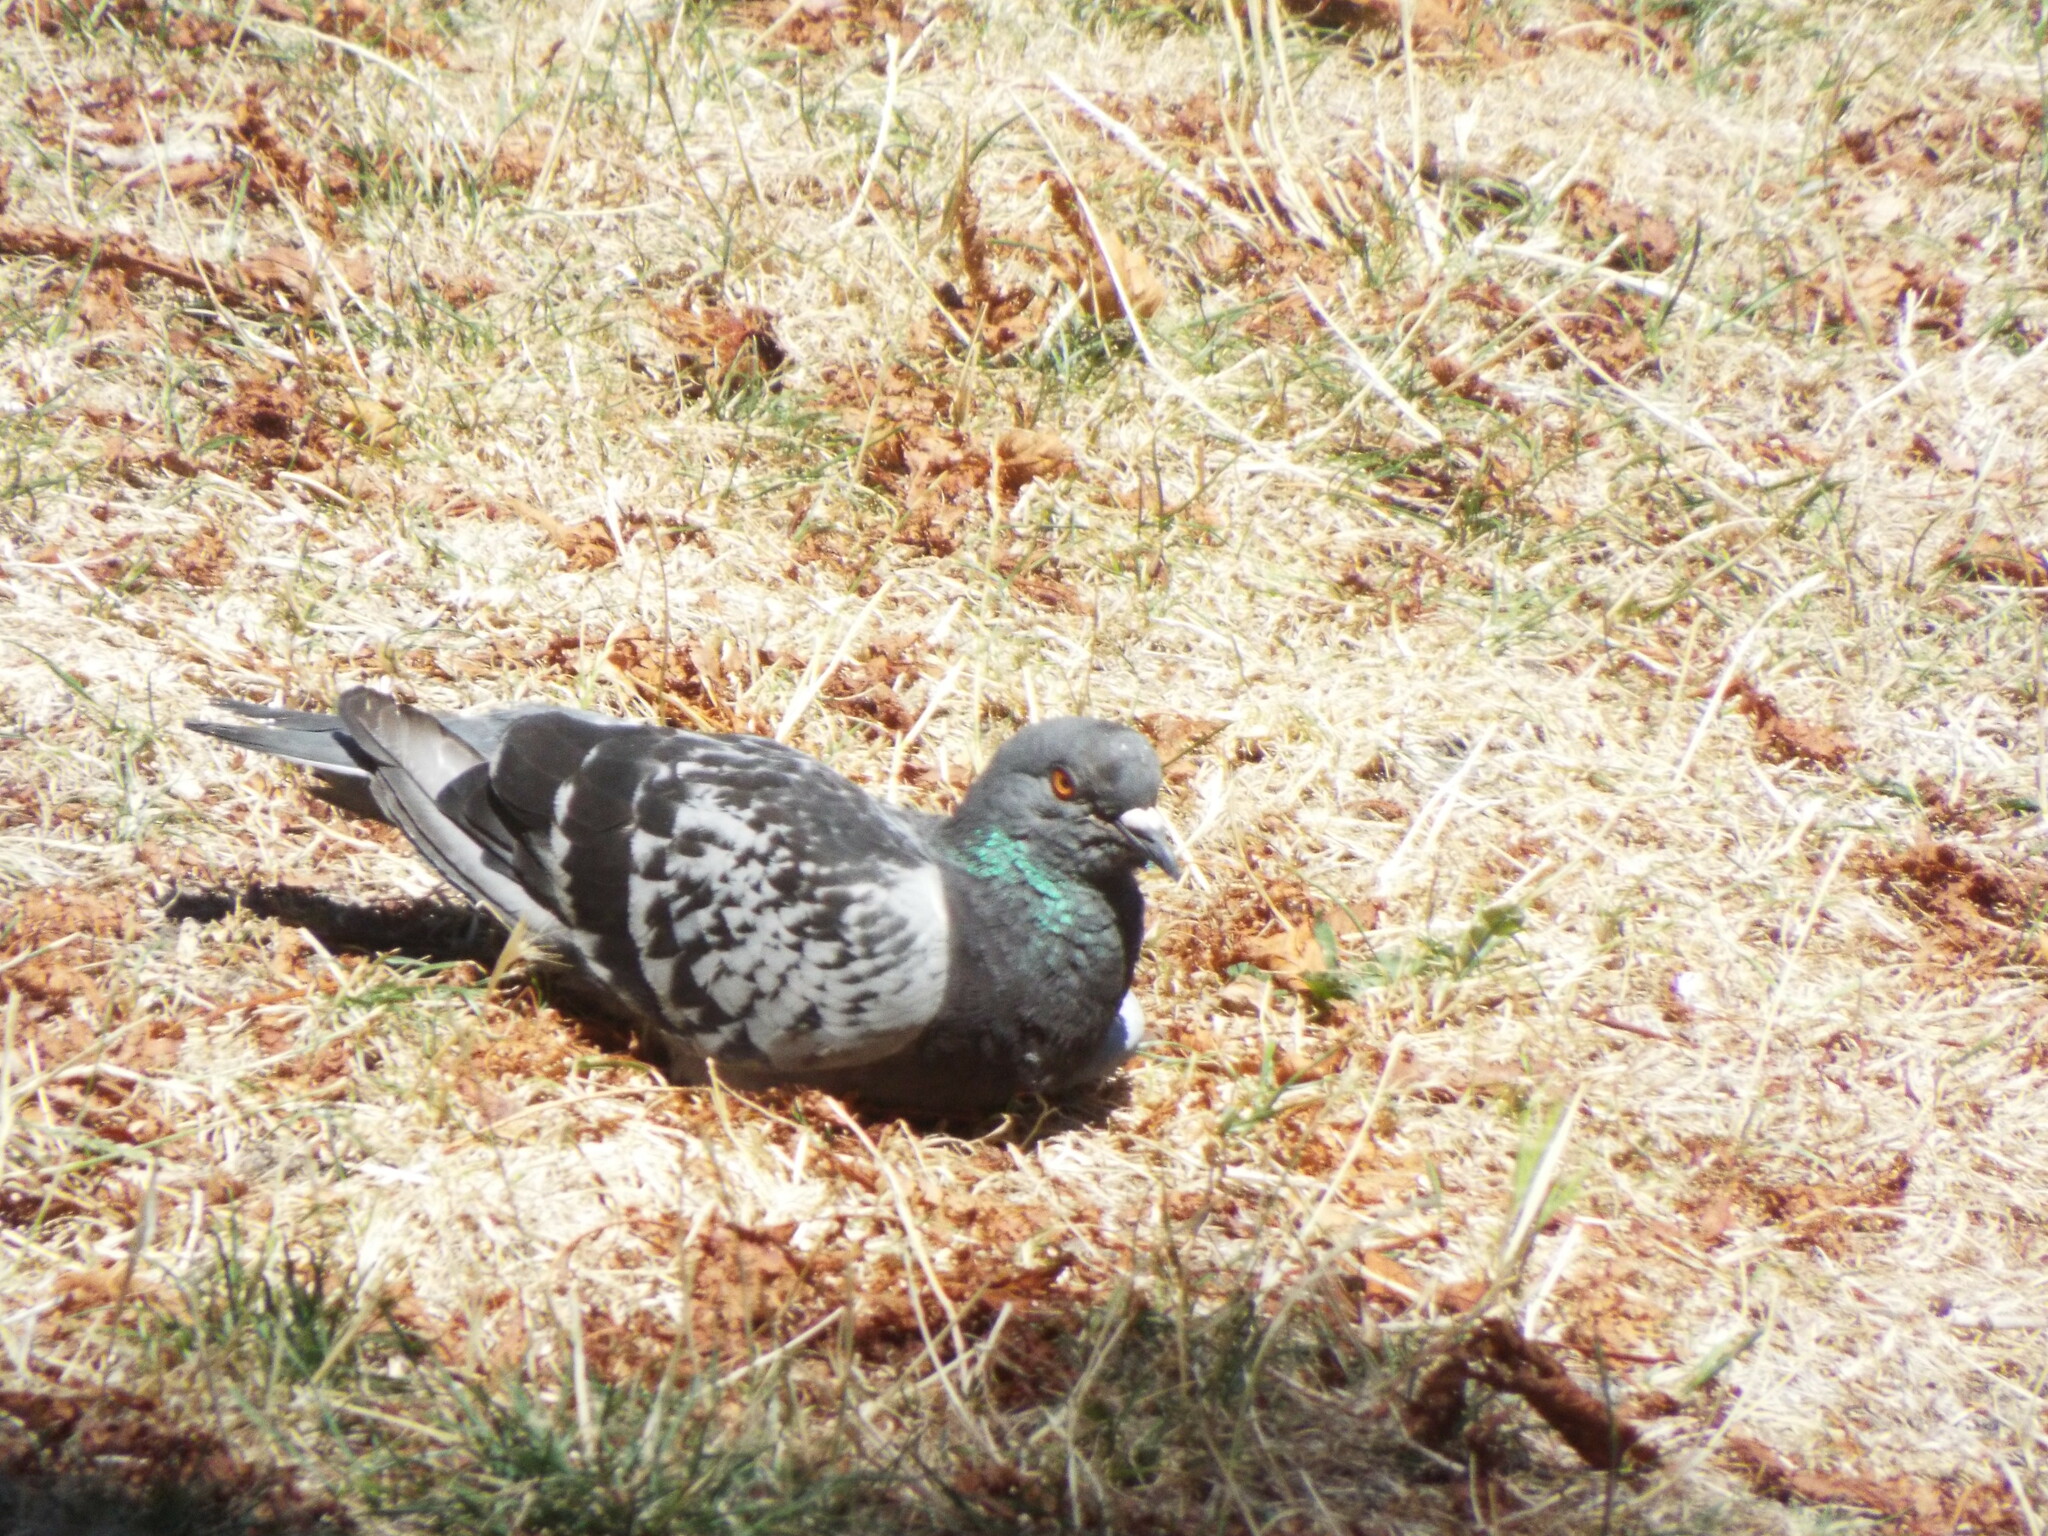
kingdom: Animalia
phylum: Chordata
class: Aves
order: Columbiformes
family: Columbidae
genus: Columba
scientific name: Columba livia
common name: Rock pigeon
